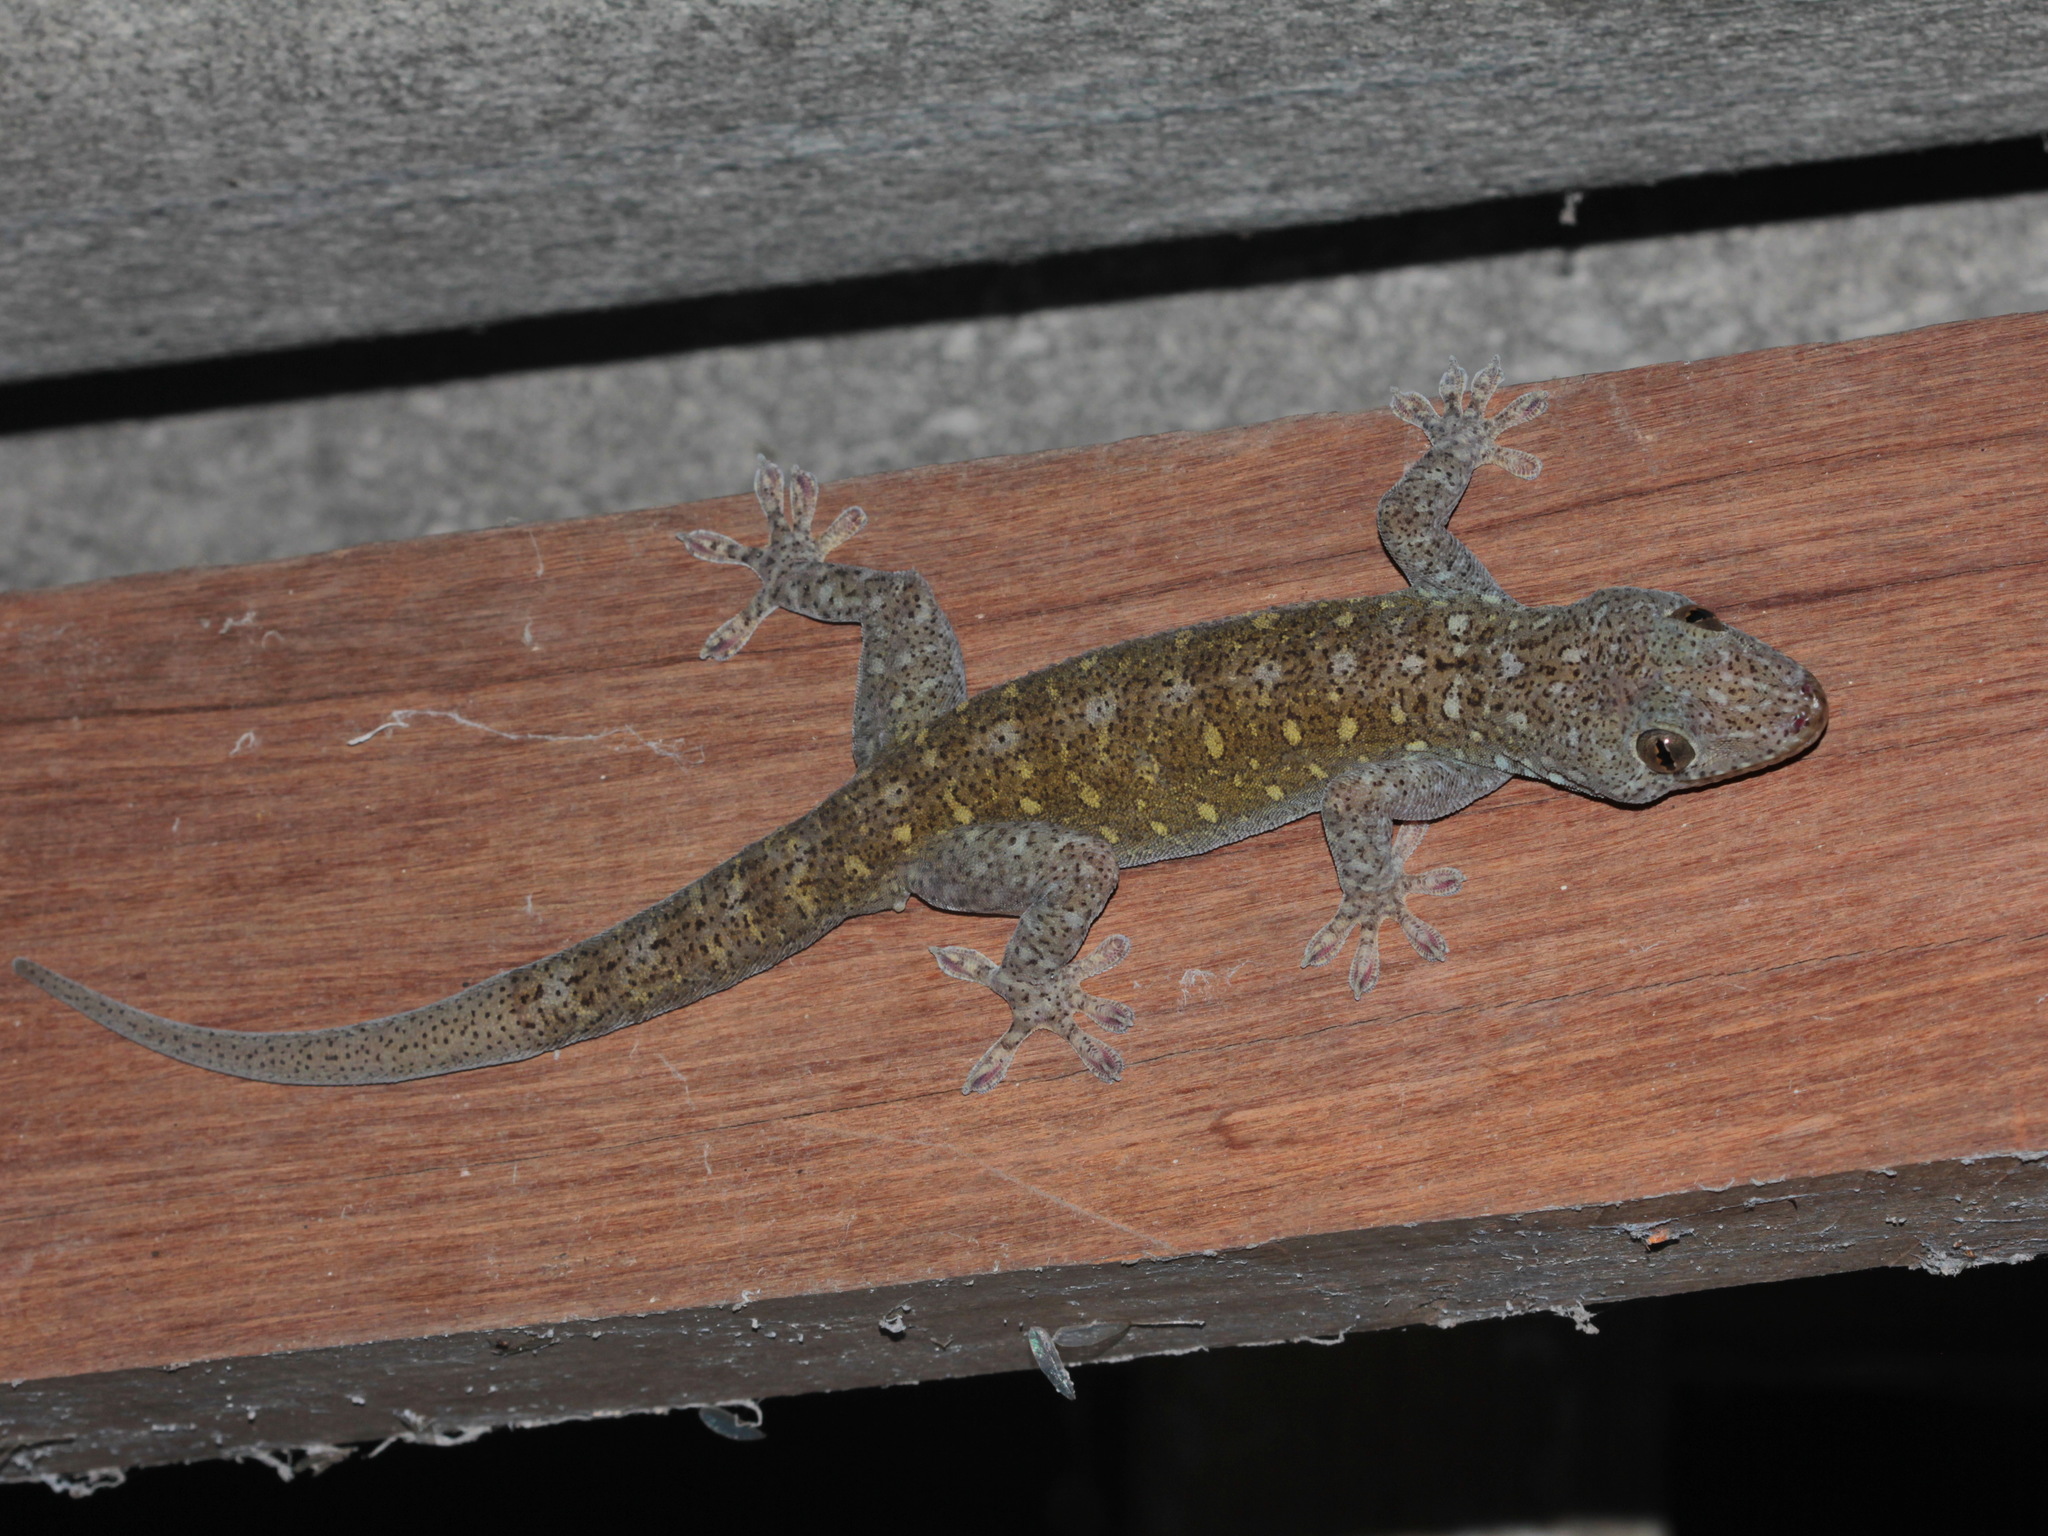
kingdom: Animalia
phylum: Chordata
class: Squamata
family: Gekkonidae
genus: Gekko
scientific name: Gekko petricolus
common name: Sandstone gecko
